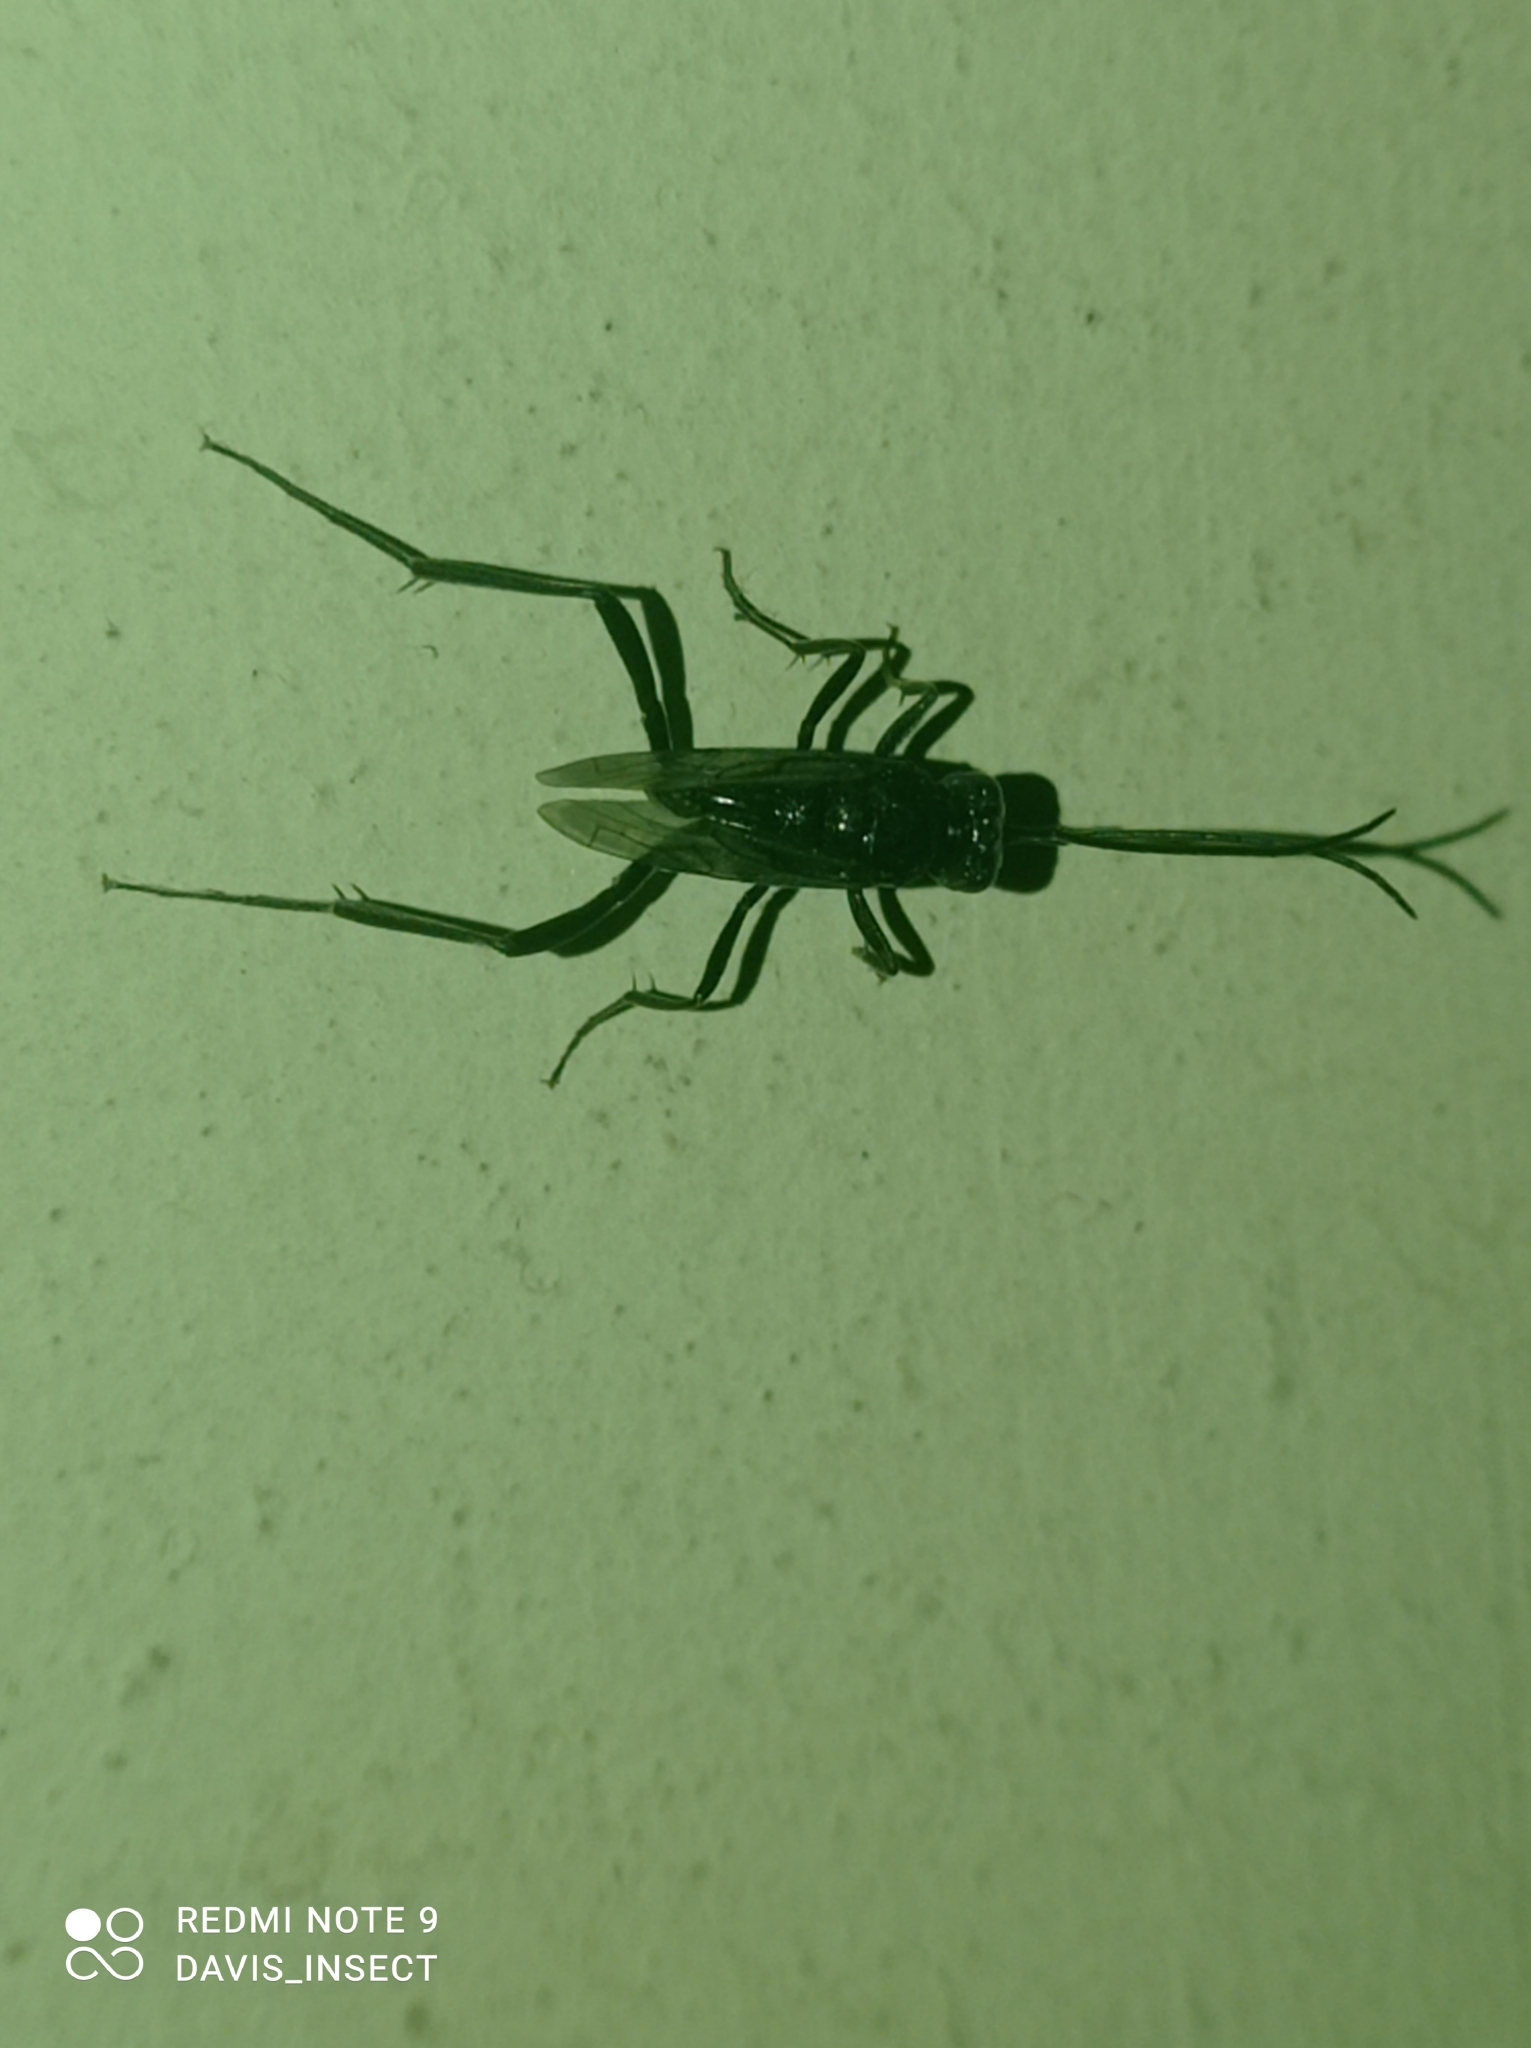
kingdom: Animalia
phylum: Arthropoda
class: Insecta
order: Hymenoptera
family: Evaniidae
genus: Evania
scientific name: Evania appendigaster
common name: Ensign wasp
